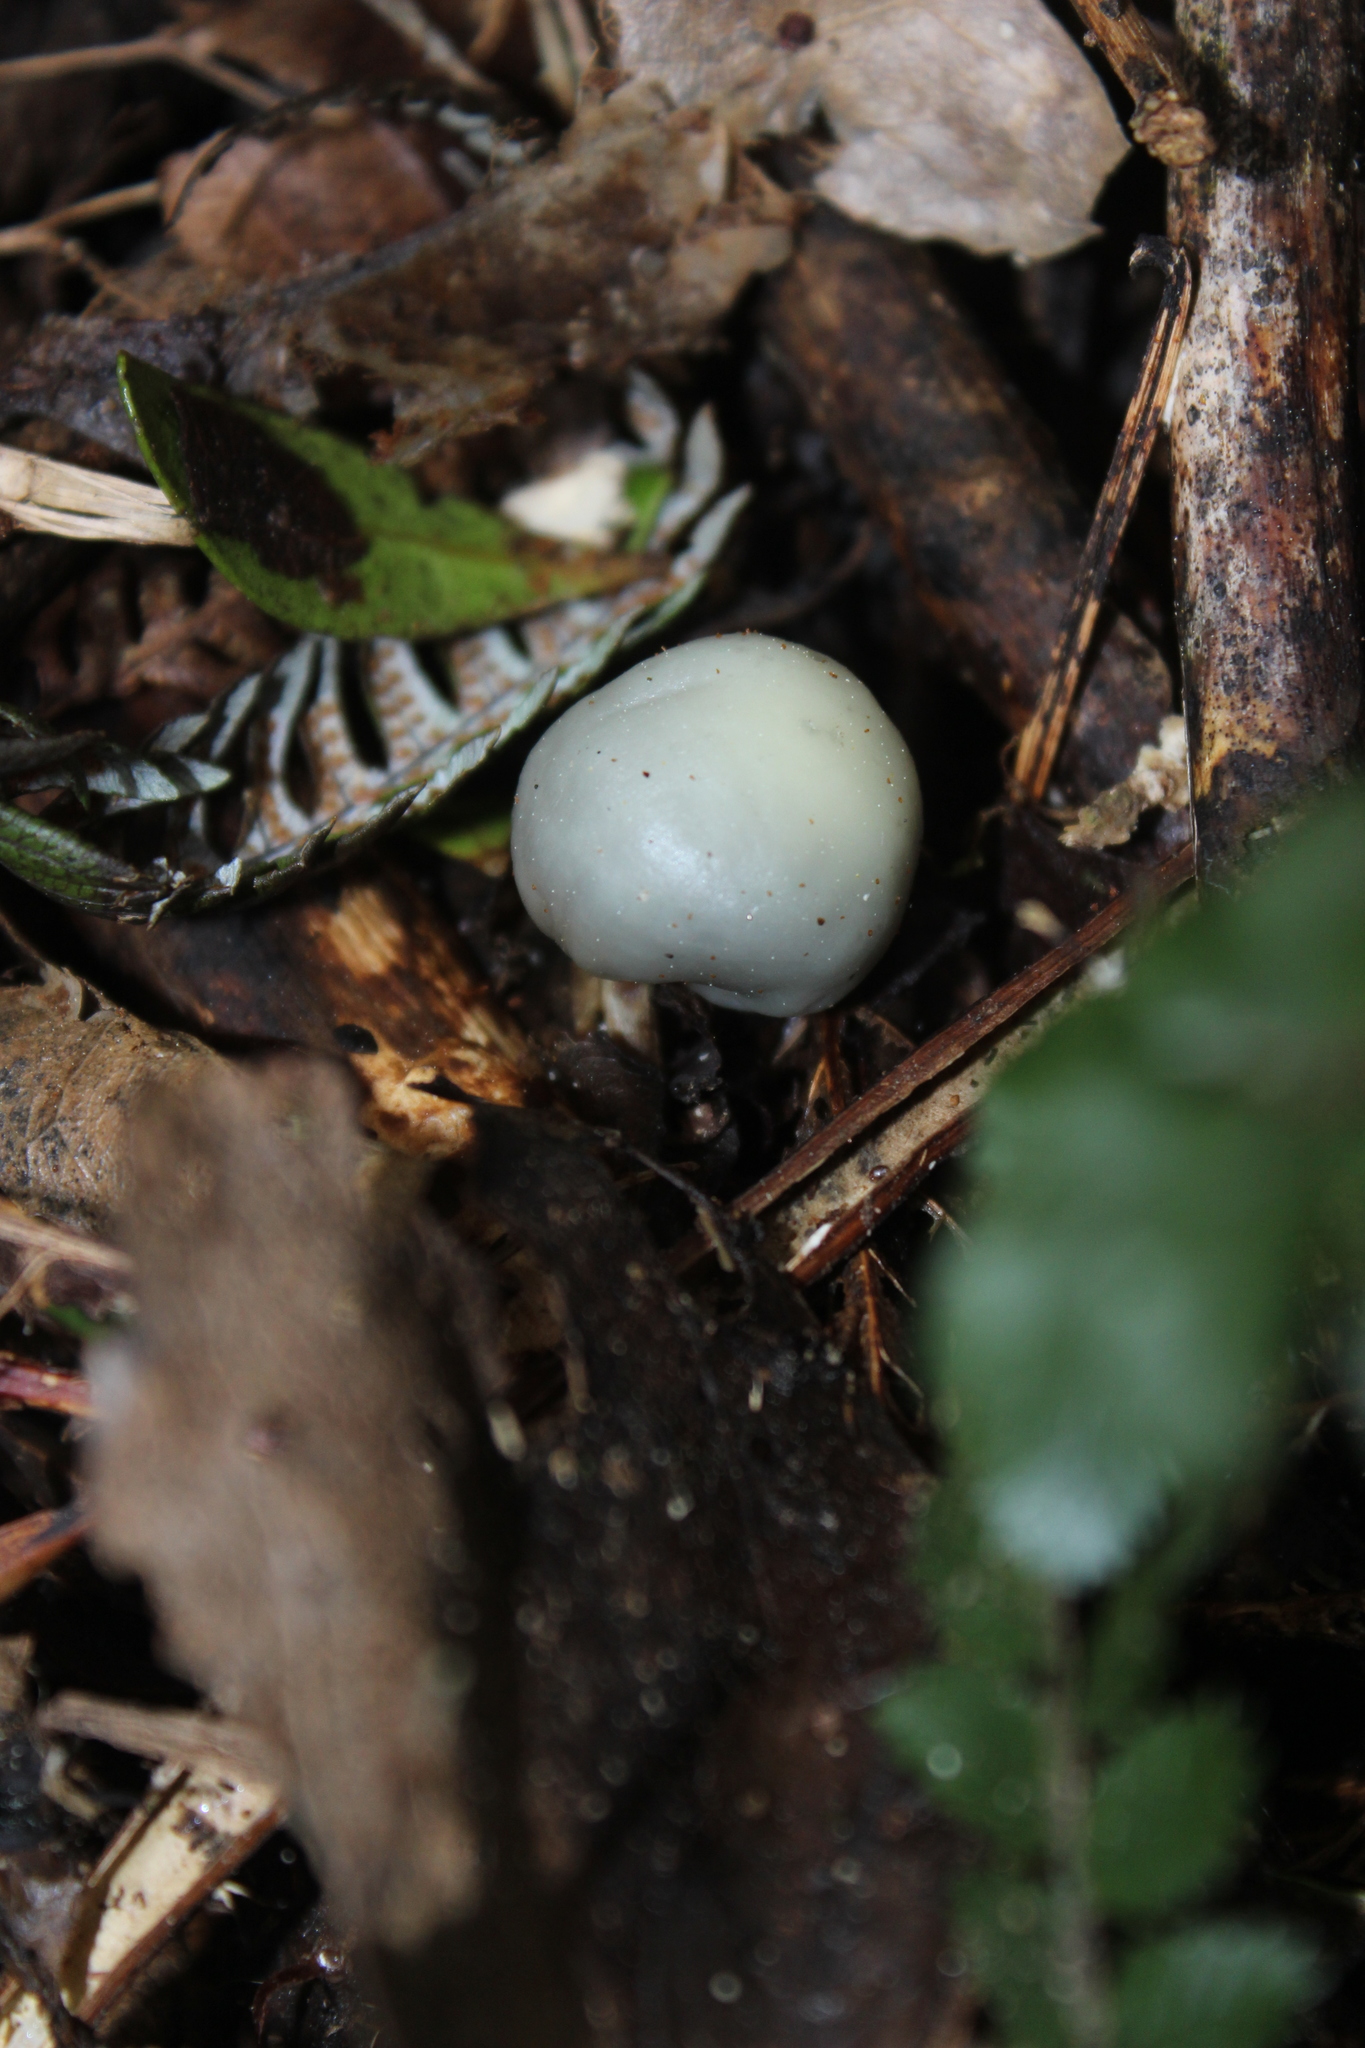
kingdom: Fungi
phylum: Basidiomycota
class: Agaricomycetes
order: Agaricales
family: Hymenogastraceae
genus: Psilocybe
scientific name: Psilocybe weraroa
